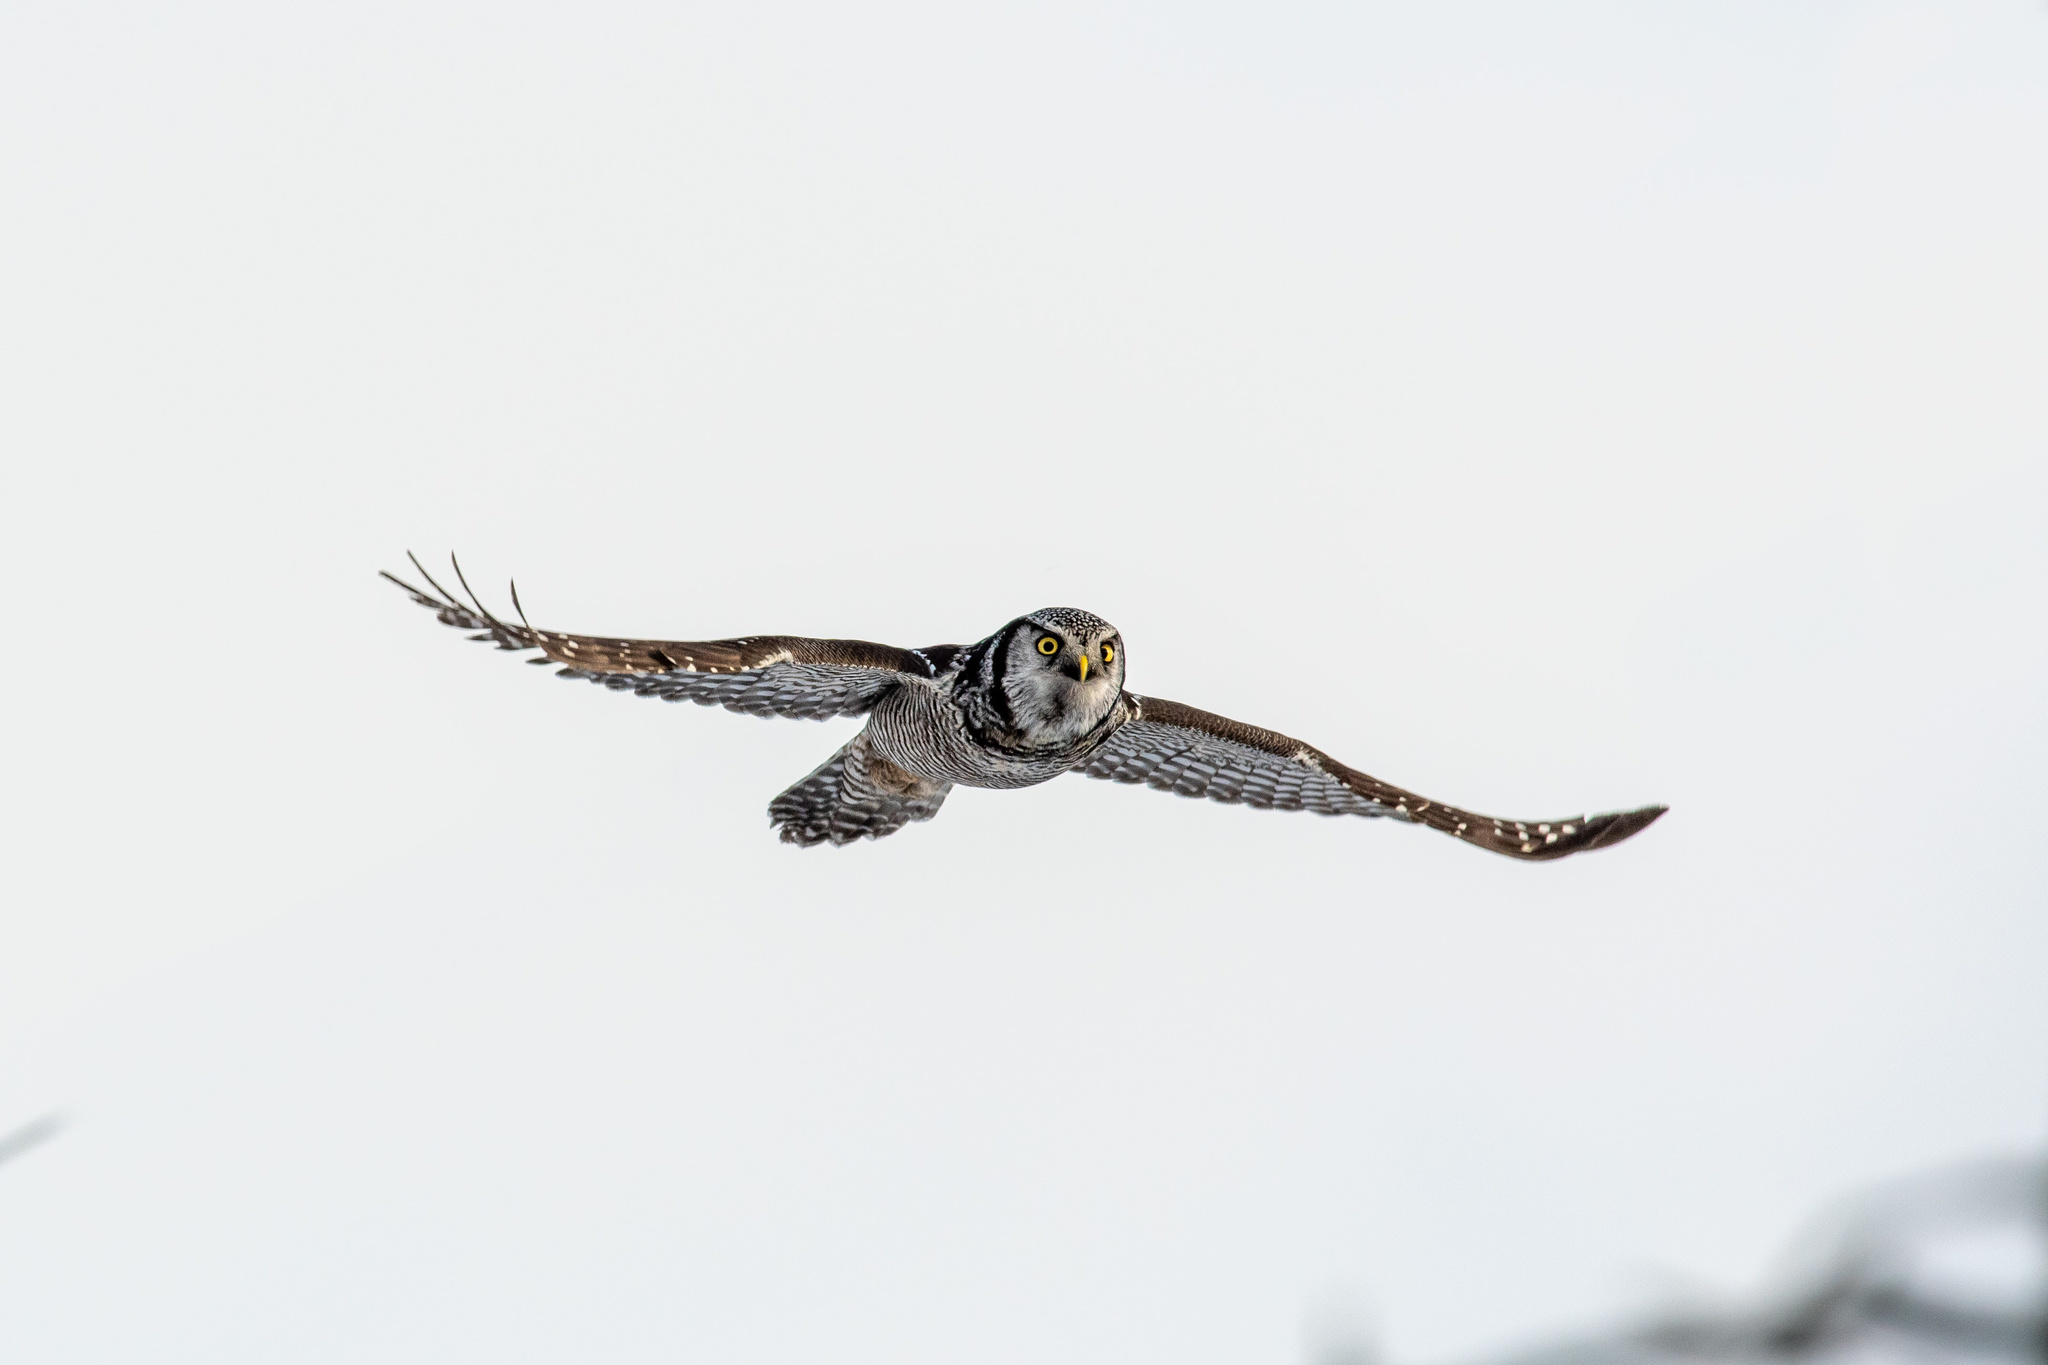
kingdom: Animalia
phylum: Chordata
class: Aves
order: Strigiformes
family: Strigidae
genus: Surnia
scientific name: Surnia ulula
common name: Northern hawk-owl
